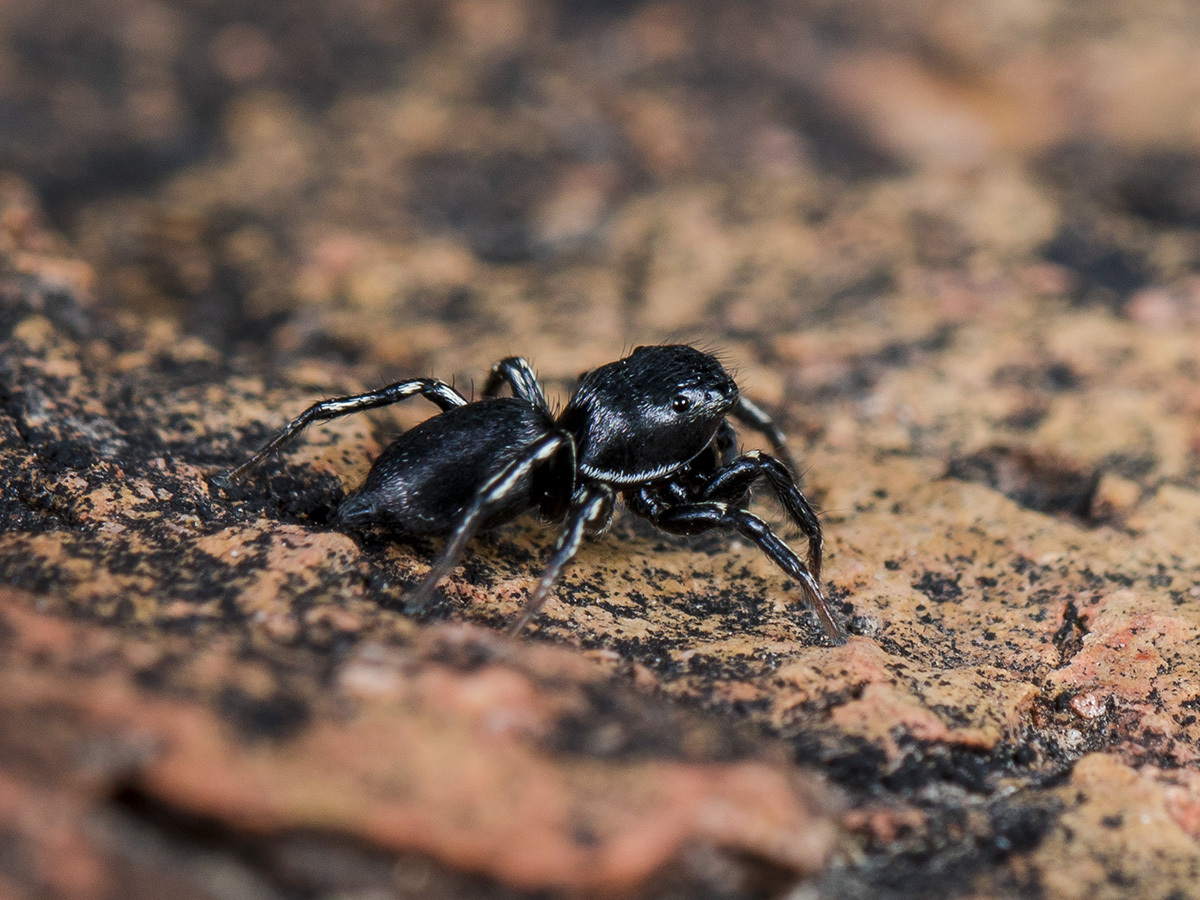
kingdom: Animalia
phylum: Arthropoda
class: Arachnida
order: Araneae
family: Salticidae
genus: Heliophanus
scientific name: Heliophanus potanini
